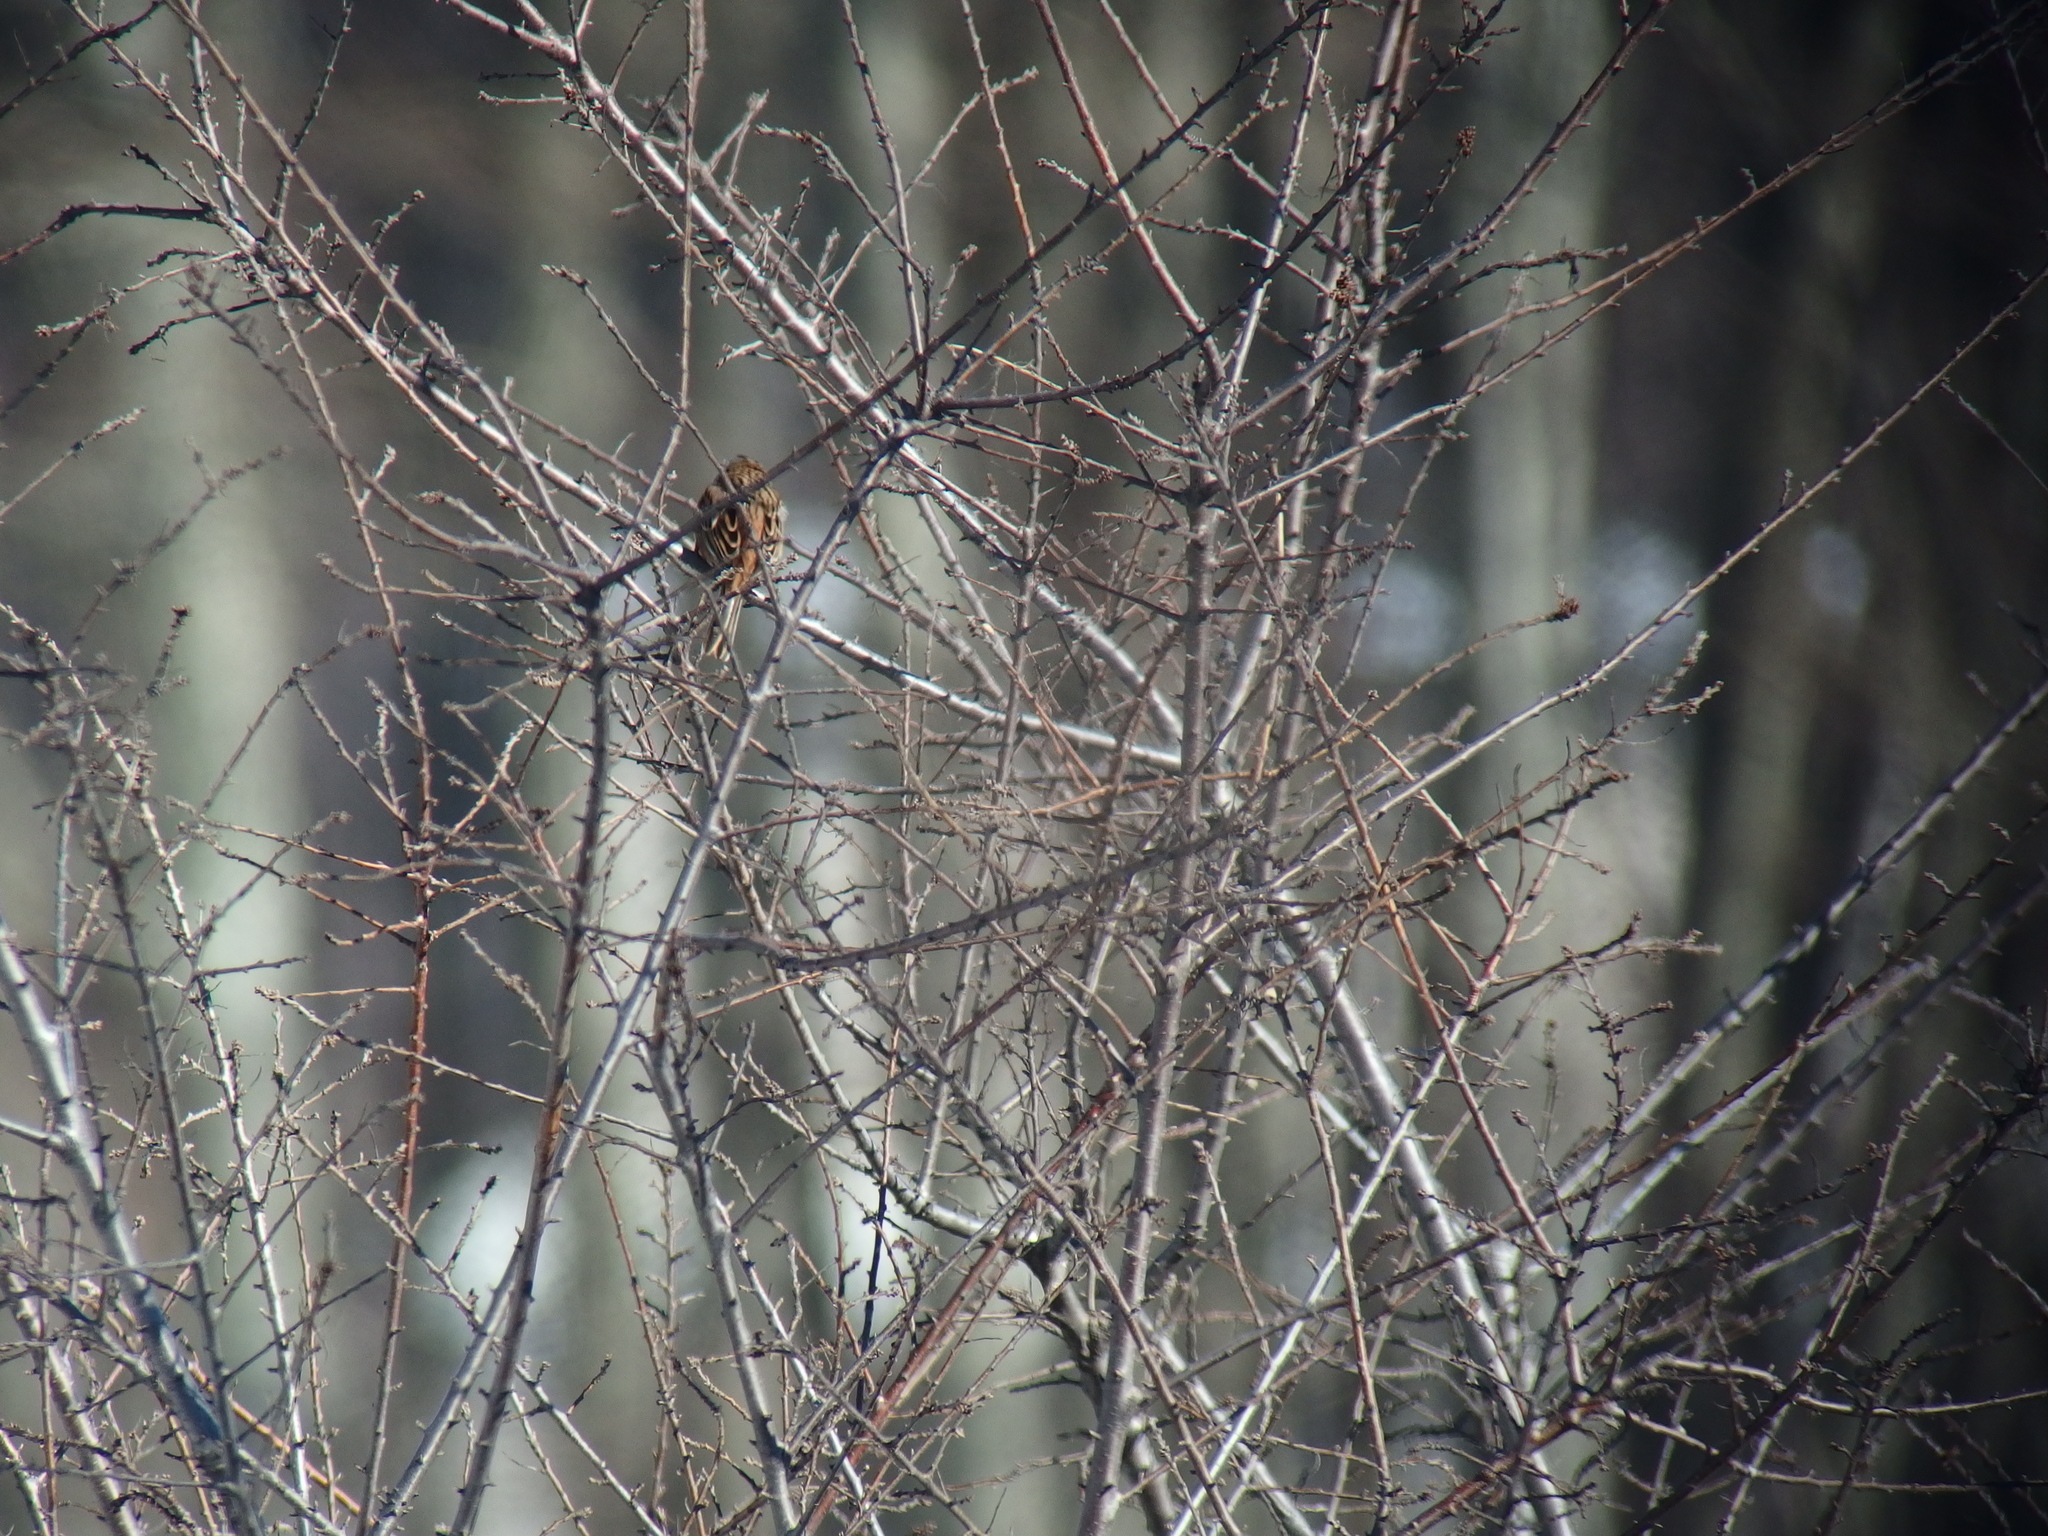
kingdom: Animalia
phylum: Chordata
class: Aves
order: Passeriformes
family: Emberizidae
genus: Emberiza
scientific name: Emberiza cia
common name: Rock bunting
